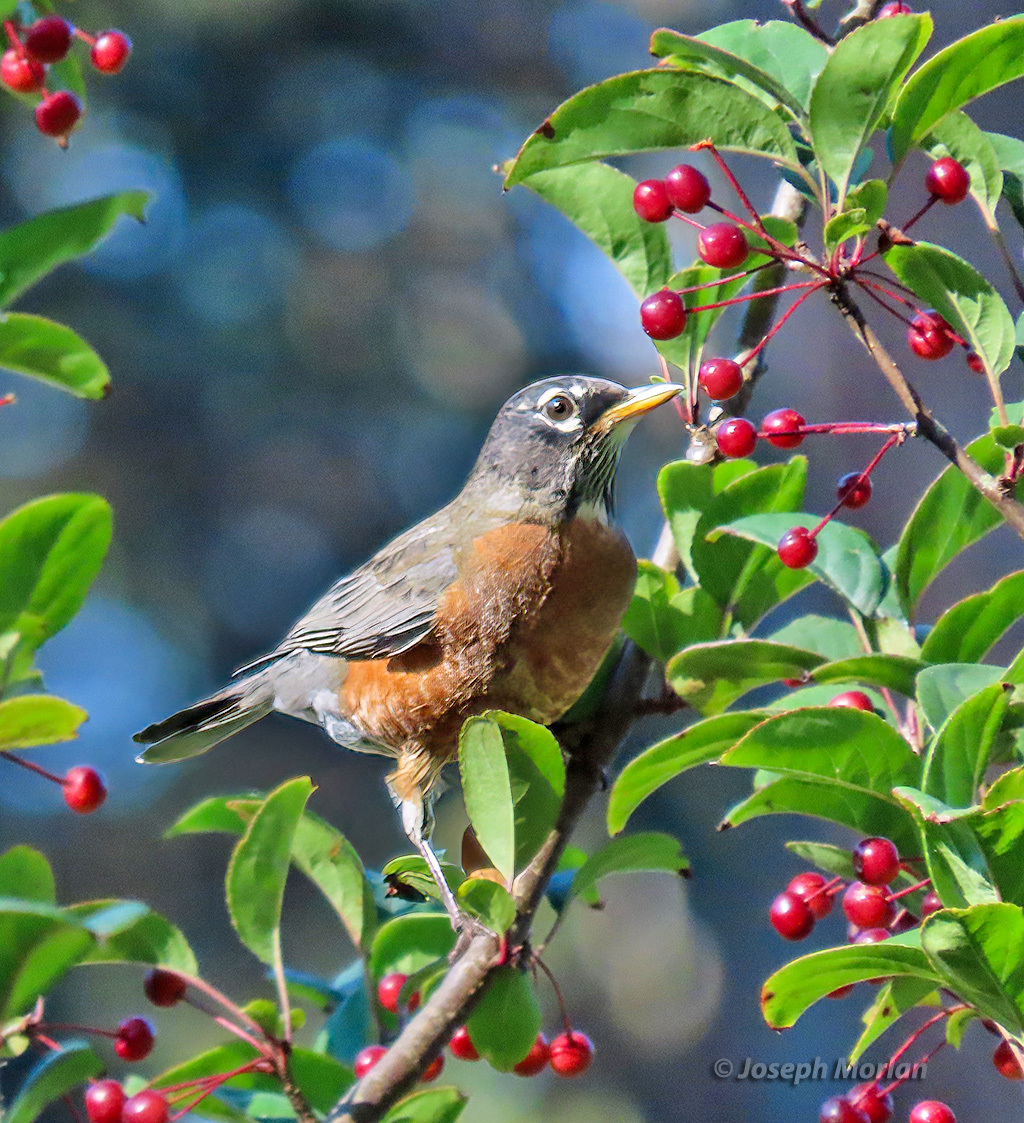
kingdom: Animalia
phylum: Chordata
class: Aves
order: Passeriformes
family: Turdidae
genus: Turdus
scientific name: Turdus migratorius
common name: American robin
